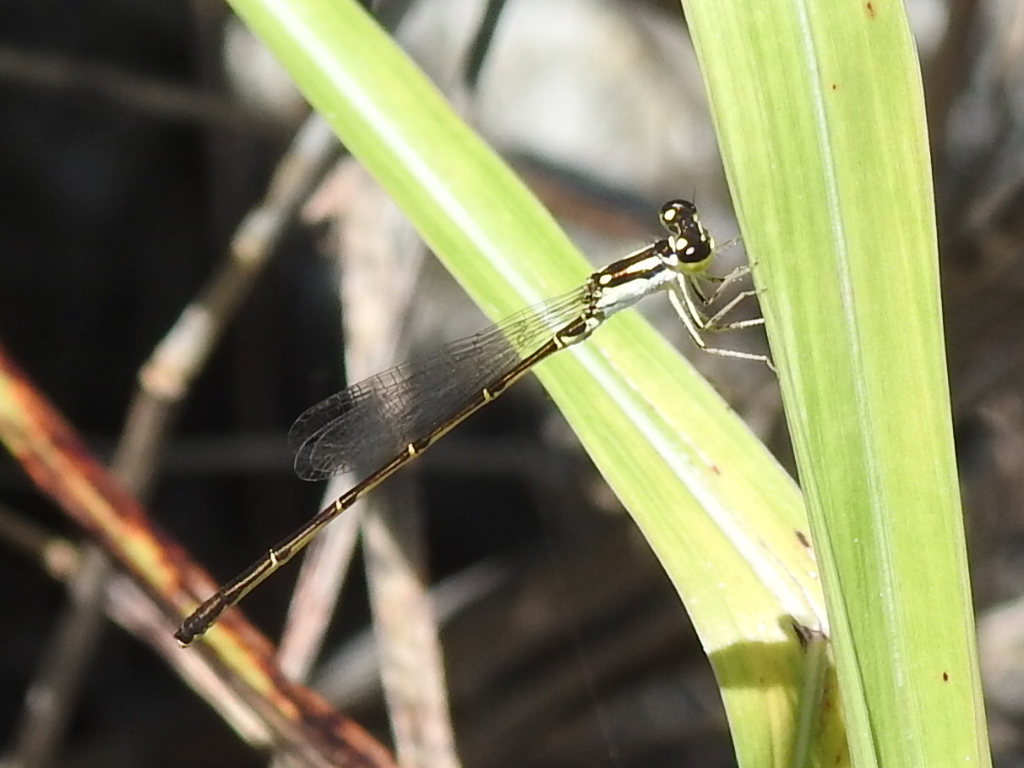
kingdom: Animalia
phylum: Arthropoda
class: Insecta
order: Odonata
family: Coenagrionidae
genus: Ischnura
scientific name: Ischnura posita
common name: Fragile forktail
